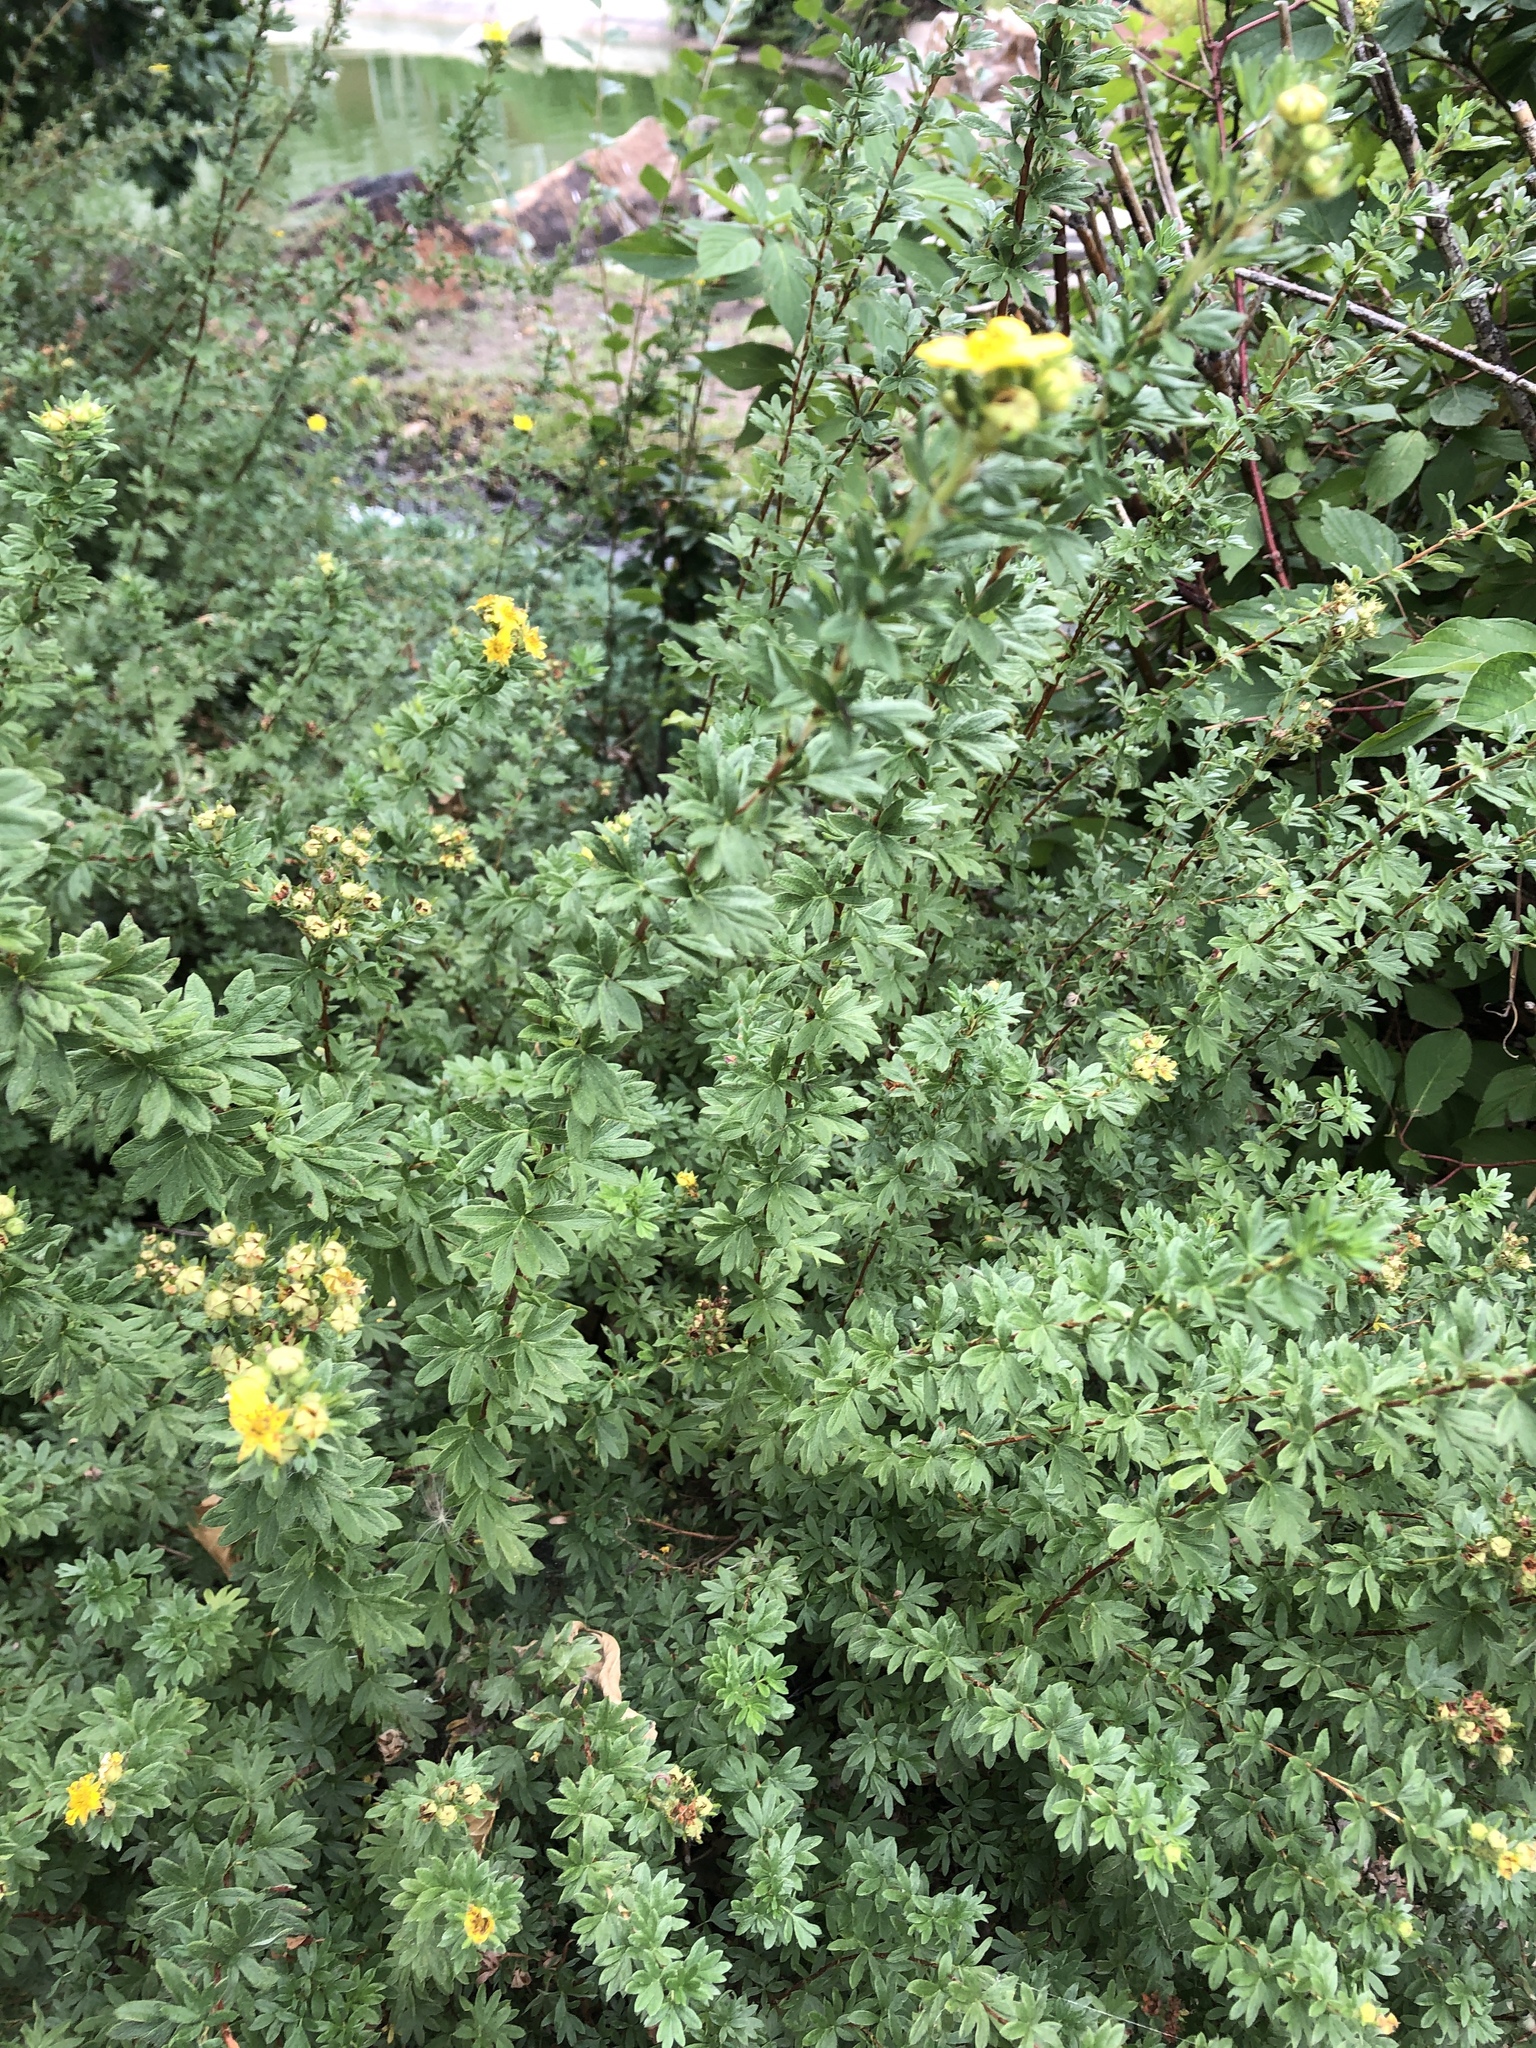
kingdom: Plantae
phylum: Tracheophyta
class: Magnoliopsida
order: Rosales
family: Rosaceae
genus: Dasiphora
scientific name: Dasiphora fruticosa
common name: Shrubby cinquefoil
